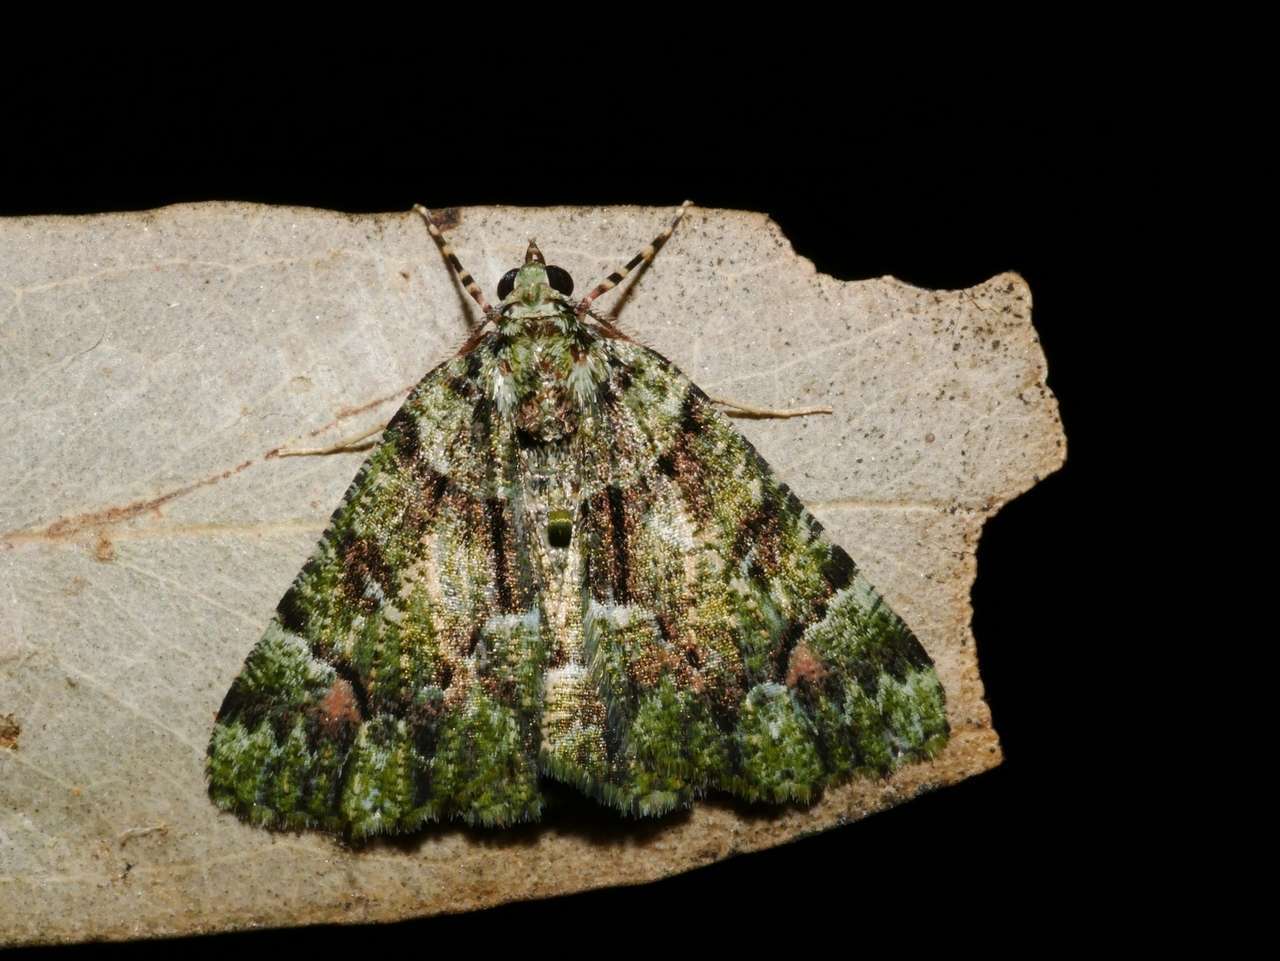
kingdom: Animalia
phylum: Arthropoda
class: Insecta
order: Lepidoptera
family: Geometridae
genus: Aeolochroma
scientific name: Aeolochroma metarhodata
